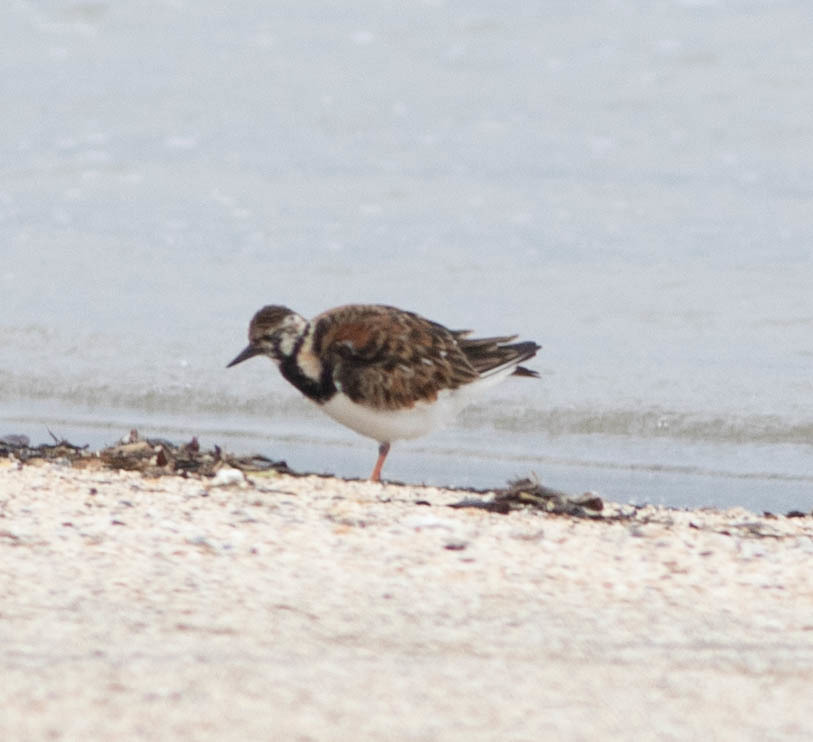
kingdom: Animalia
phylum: Chordata
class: Aves
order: Charadriiformes
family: Scolopacidae
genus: Arenaria
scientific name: Arenaria interpres
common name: Ruddy turnstone
